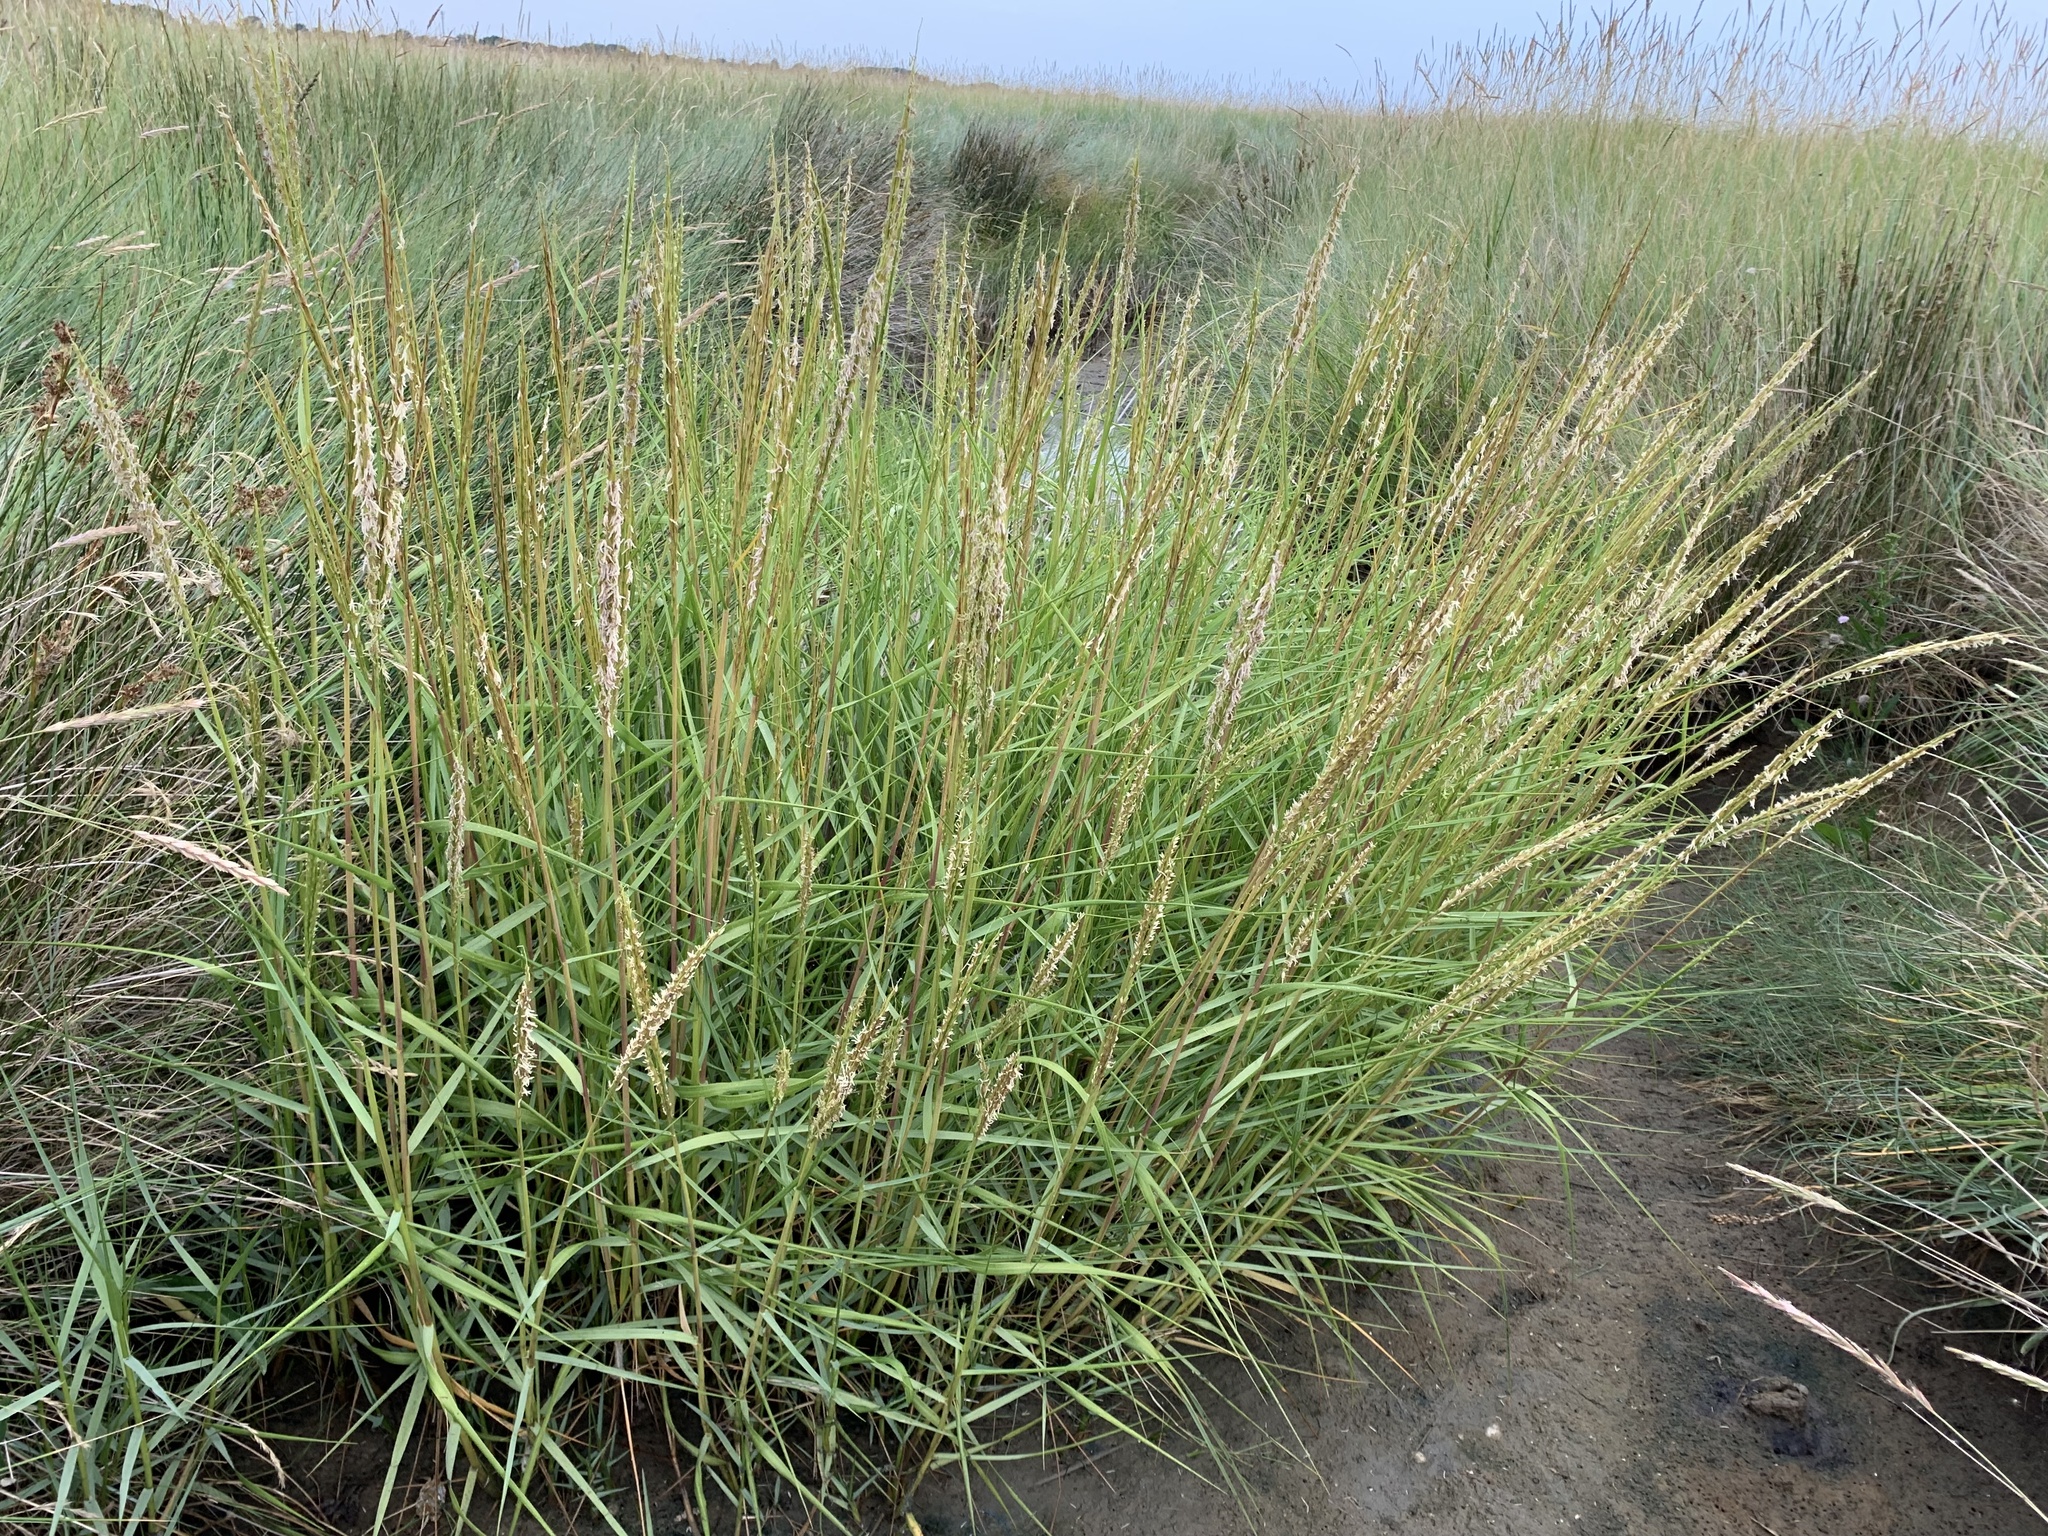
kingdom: Plantae
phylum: Tracheophyta
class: Liliopsida
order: Poales
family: Poaceae
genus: Sporobolus
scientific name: Sporobolus anglicus
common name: English cordgrass
